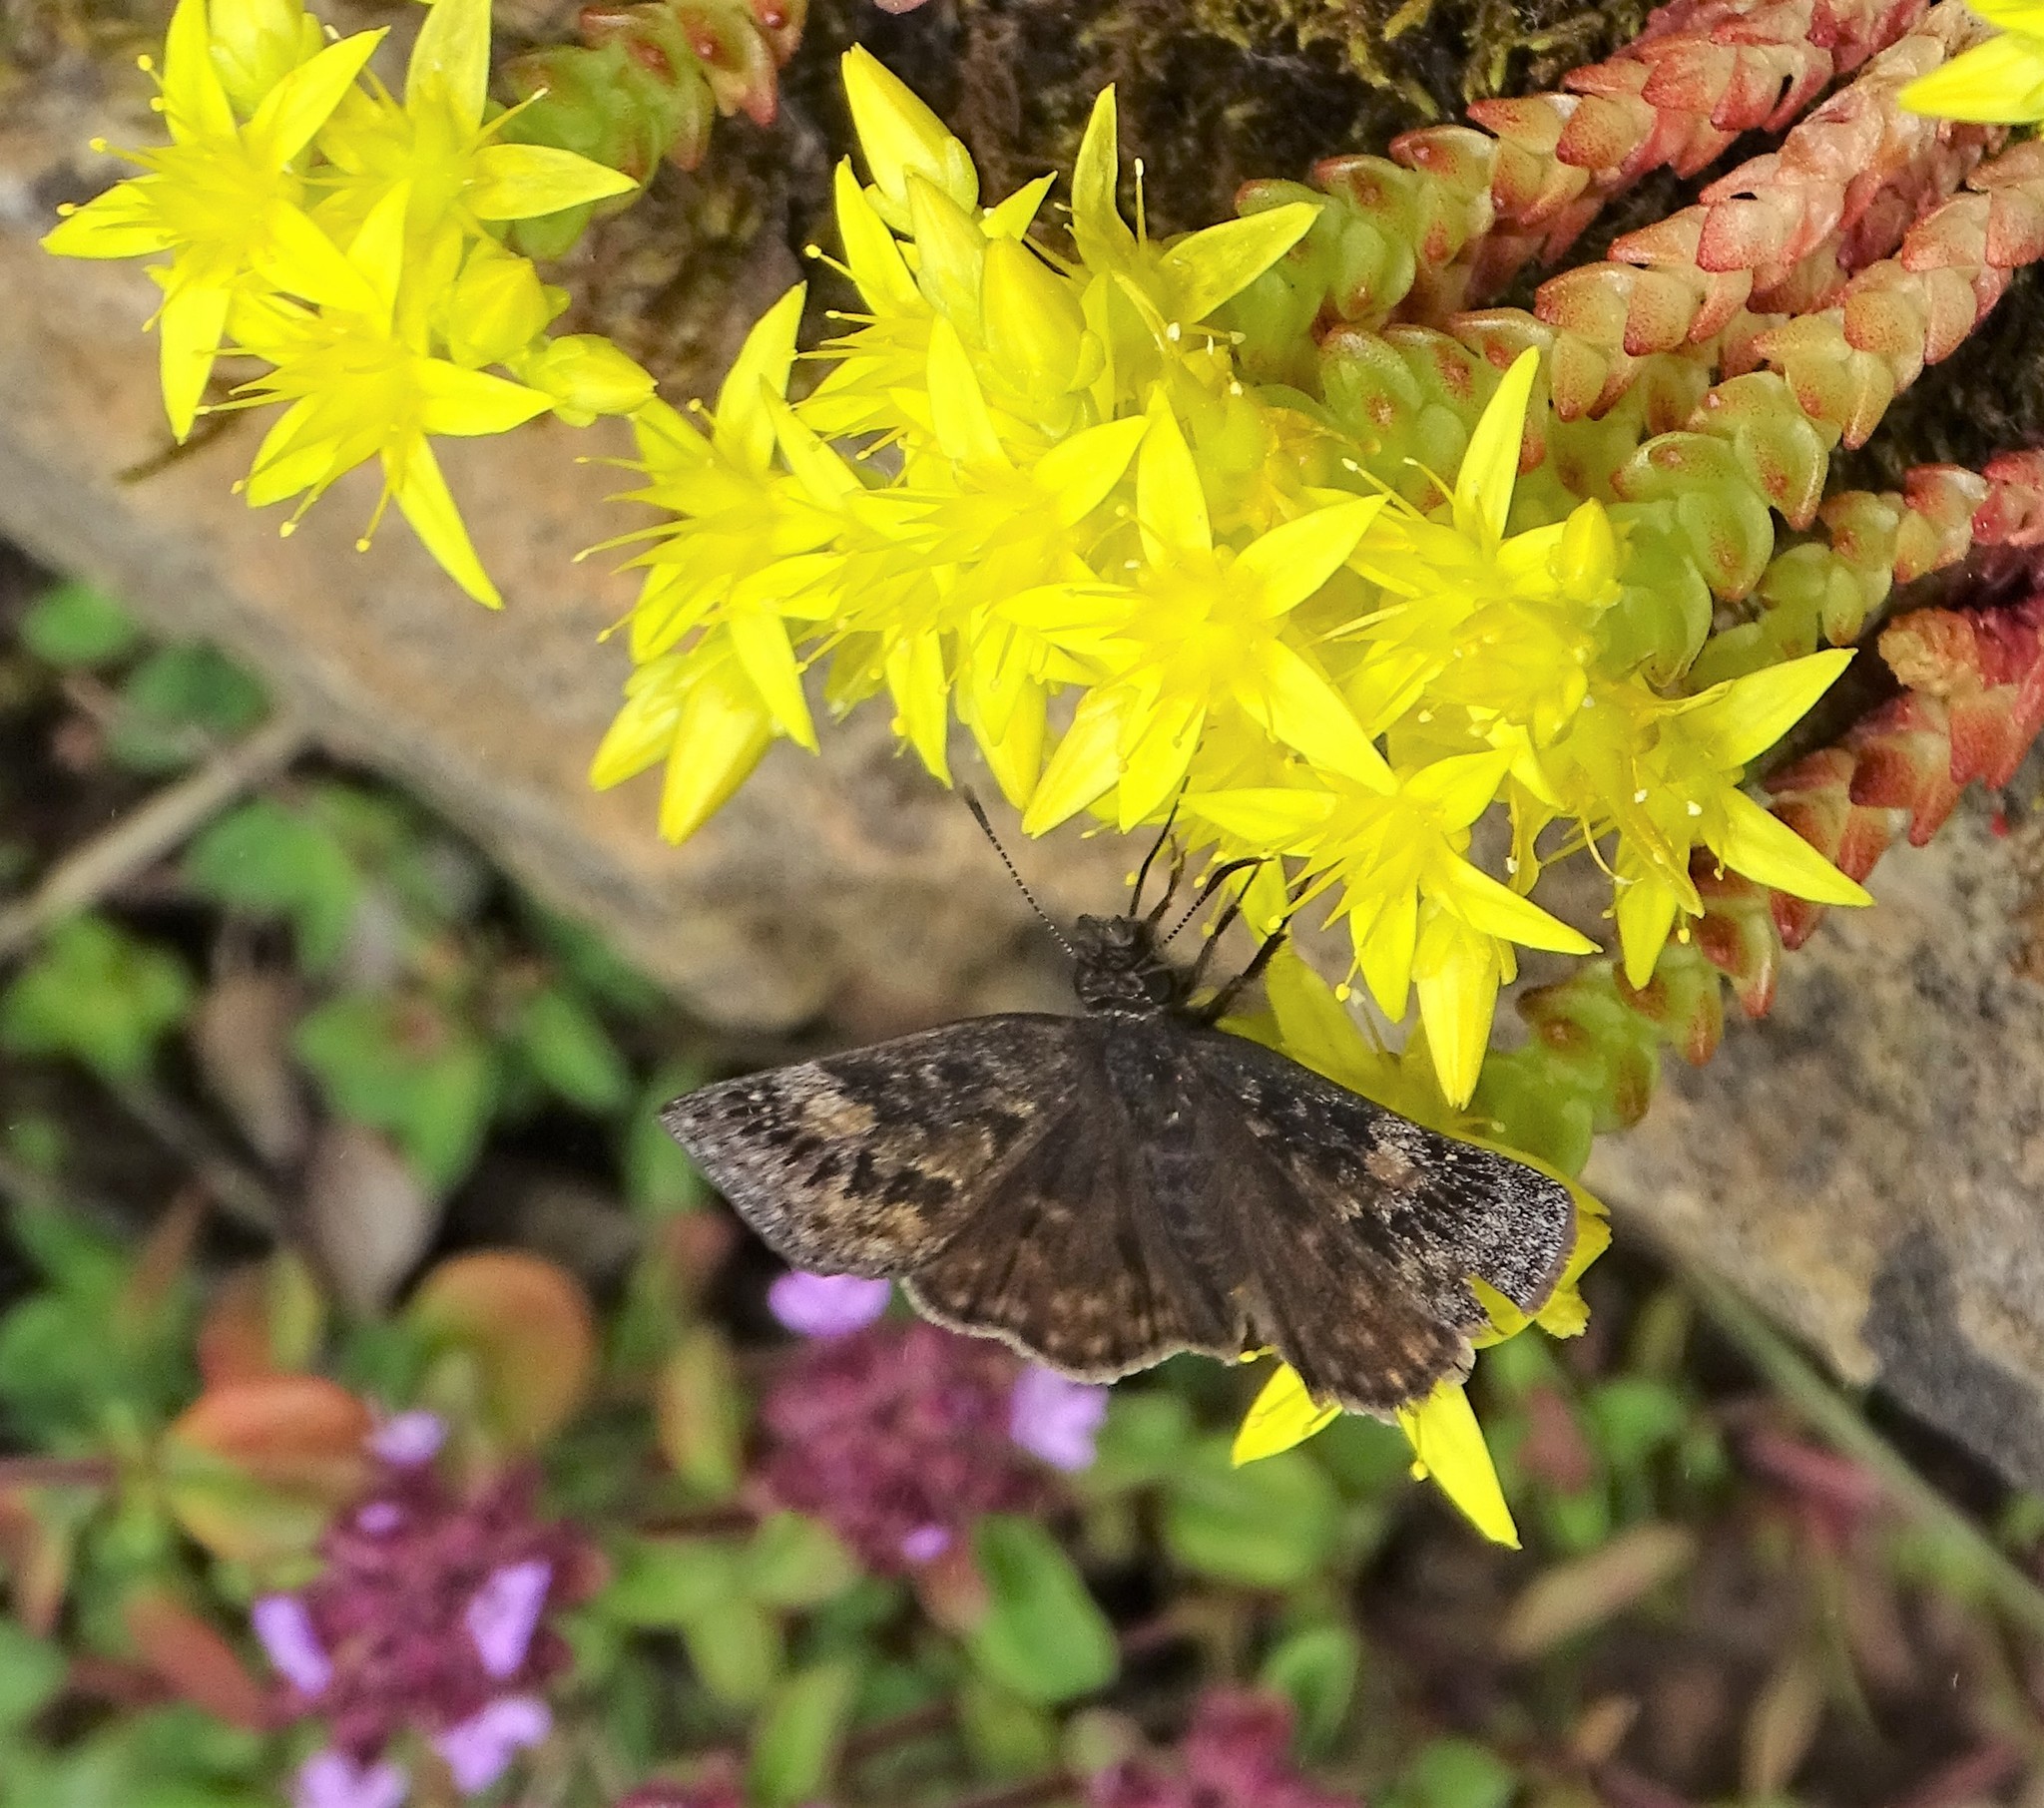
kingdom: Animalia
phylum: Arthropoda
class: Insecta
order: Lepidoptera
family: Hesperiidae
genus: Erynnis
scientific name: Erynnis baptisiae
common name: Wild indigo duskywing
